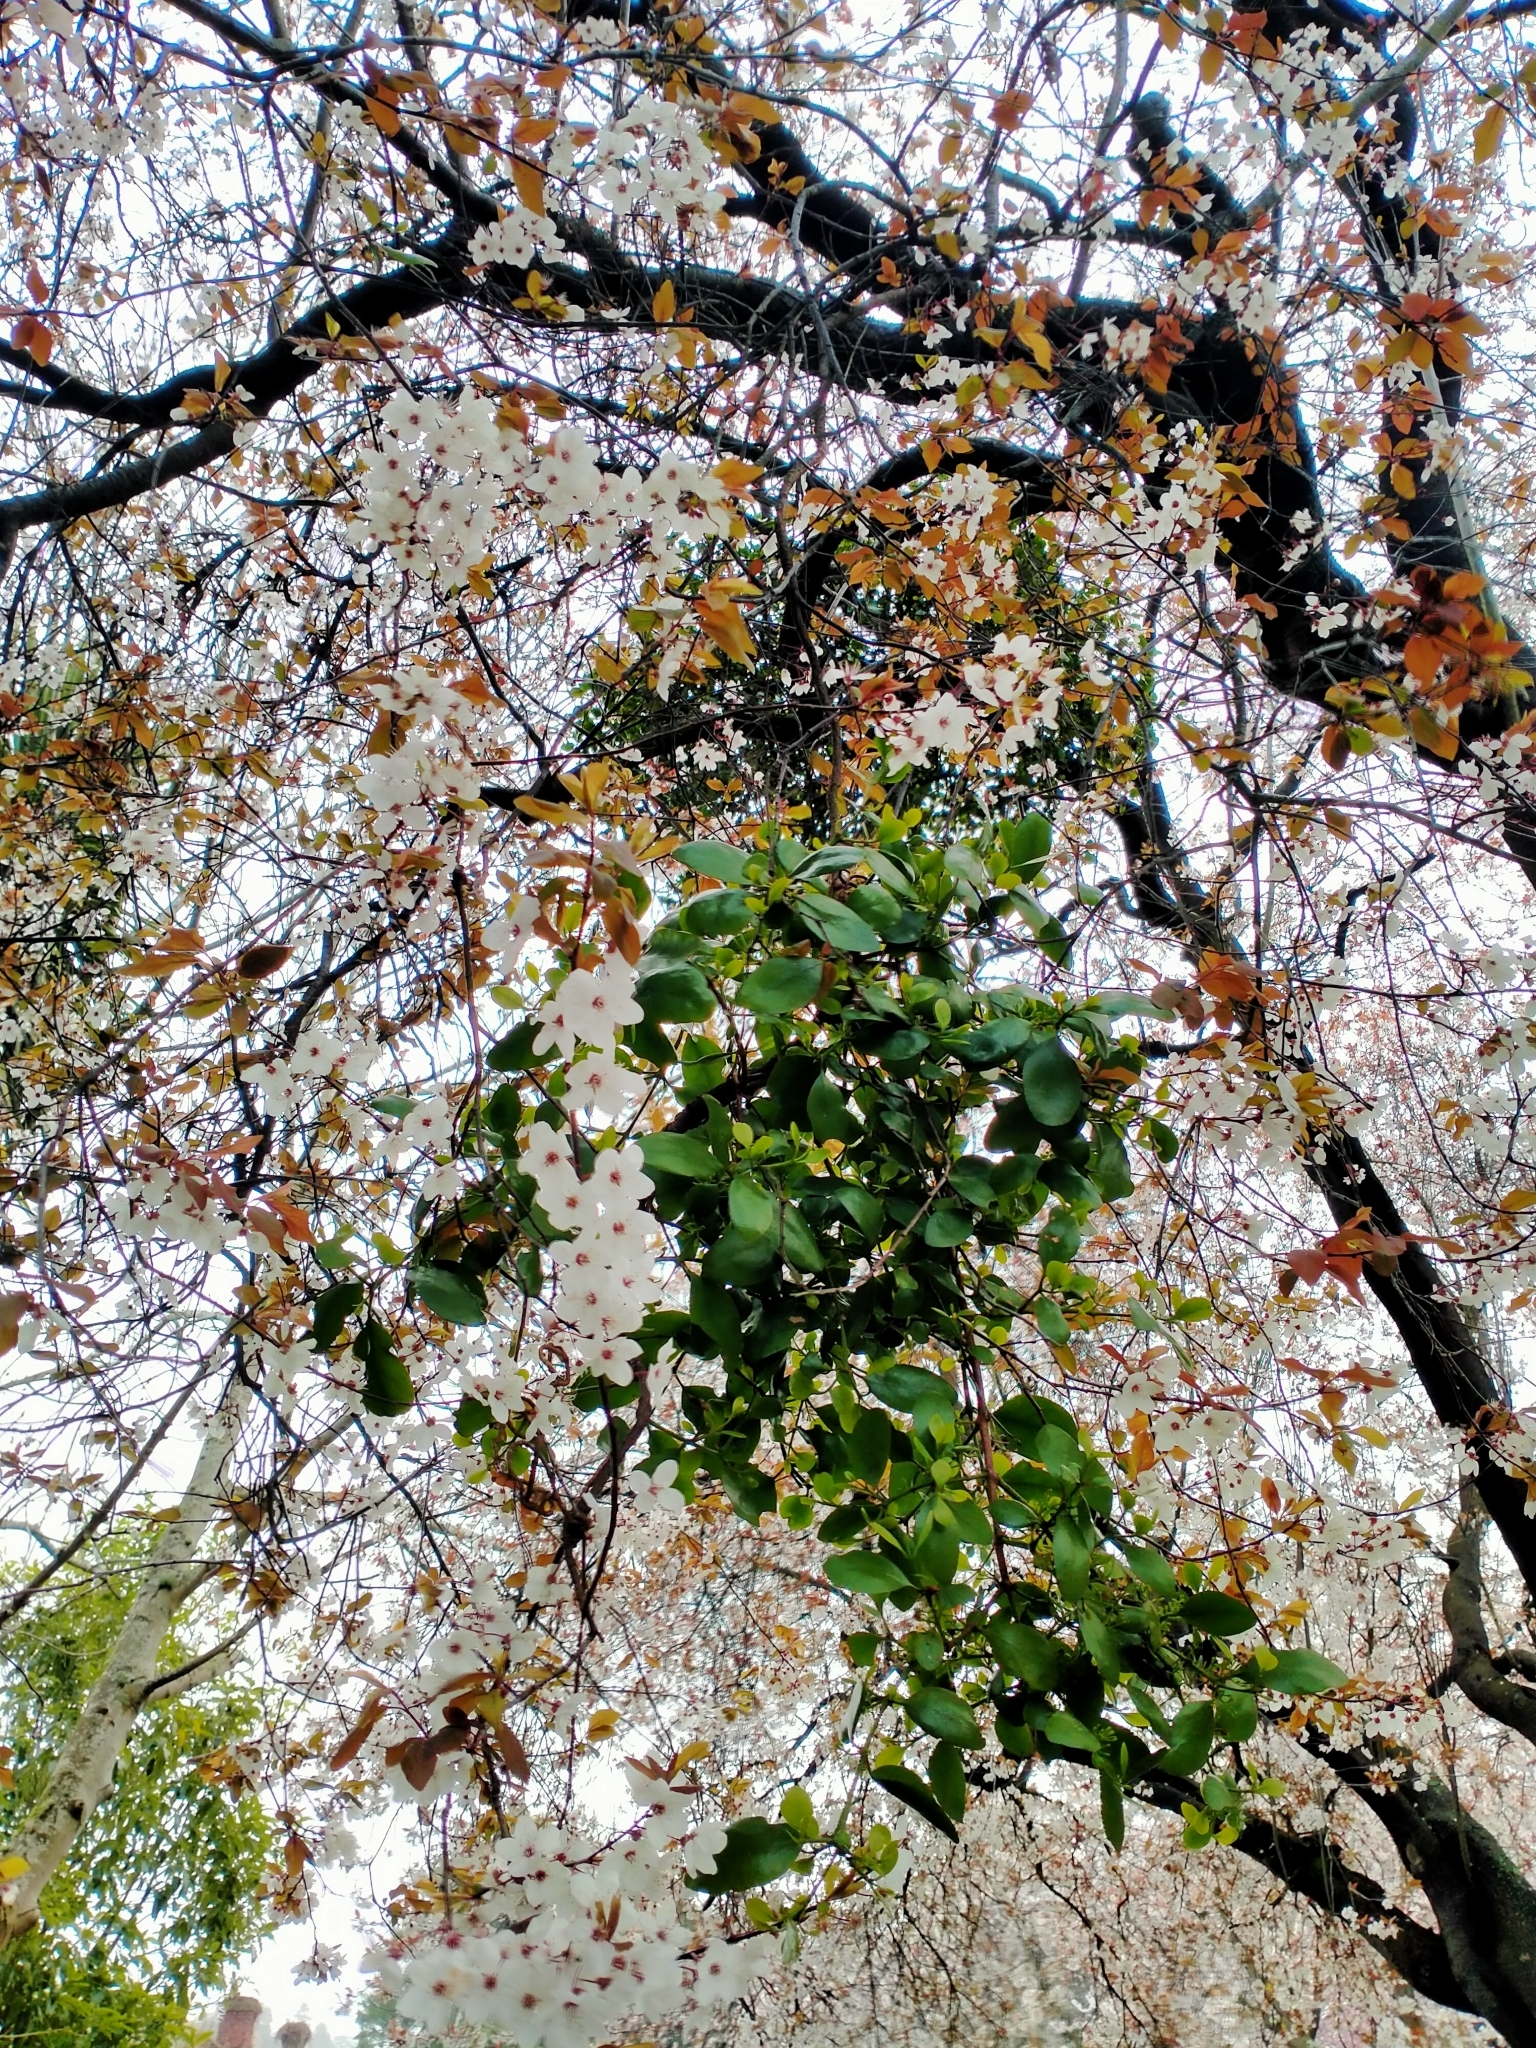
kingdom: Plantae
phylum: Tracheophyta
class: Magnoliopsida
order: Santalales
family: Loranthaceae
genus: Ileostylus
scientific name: Ileostylus micranthus
